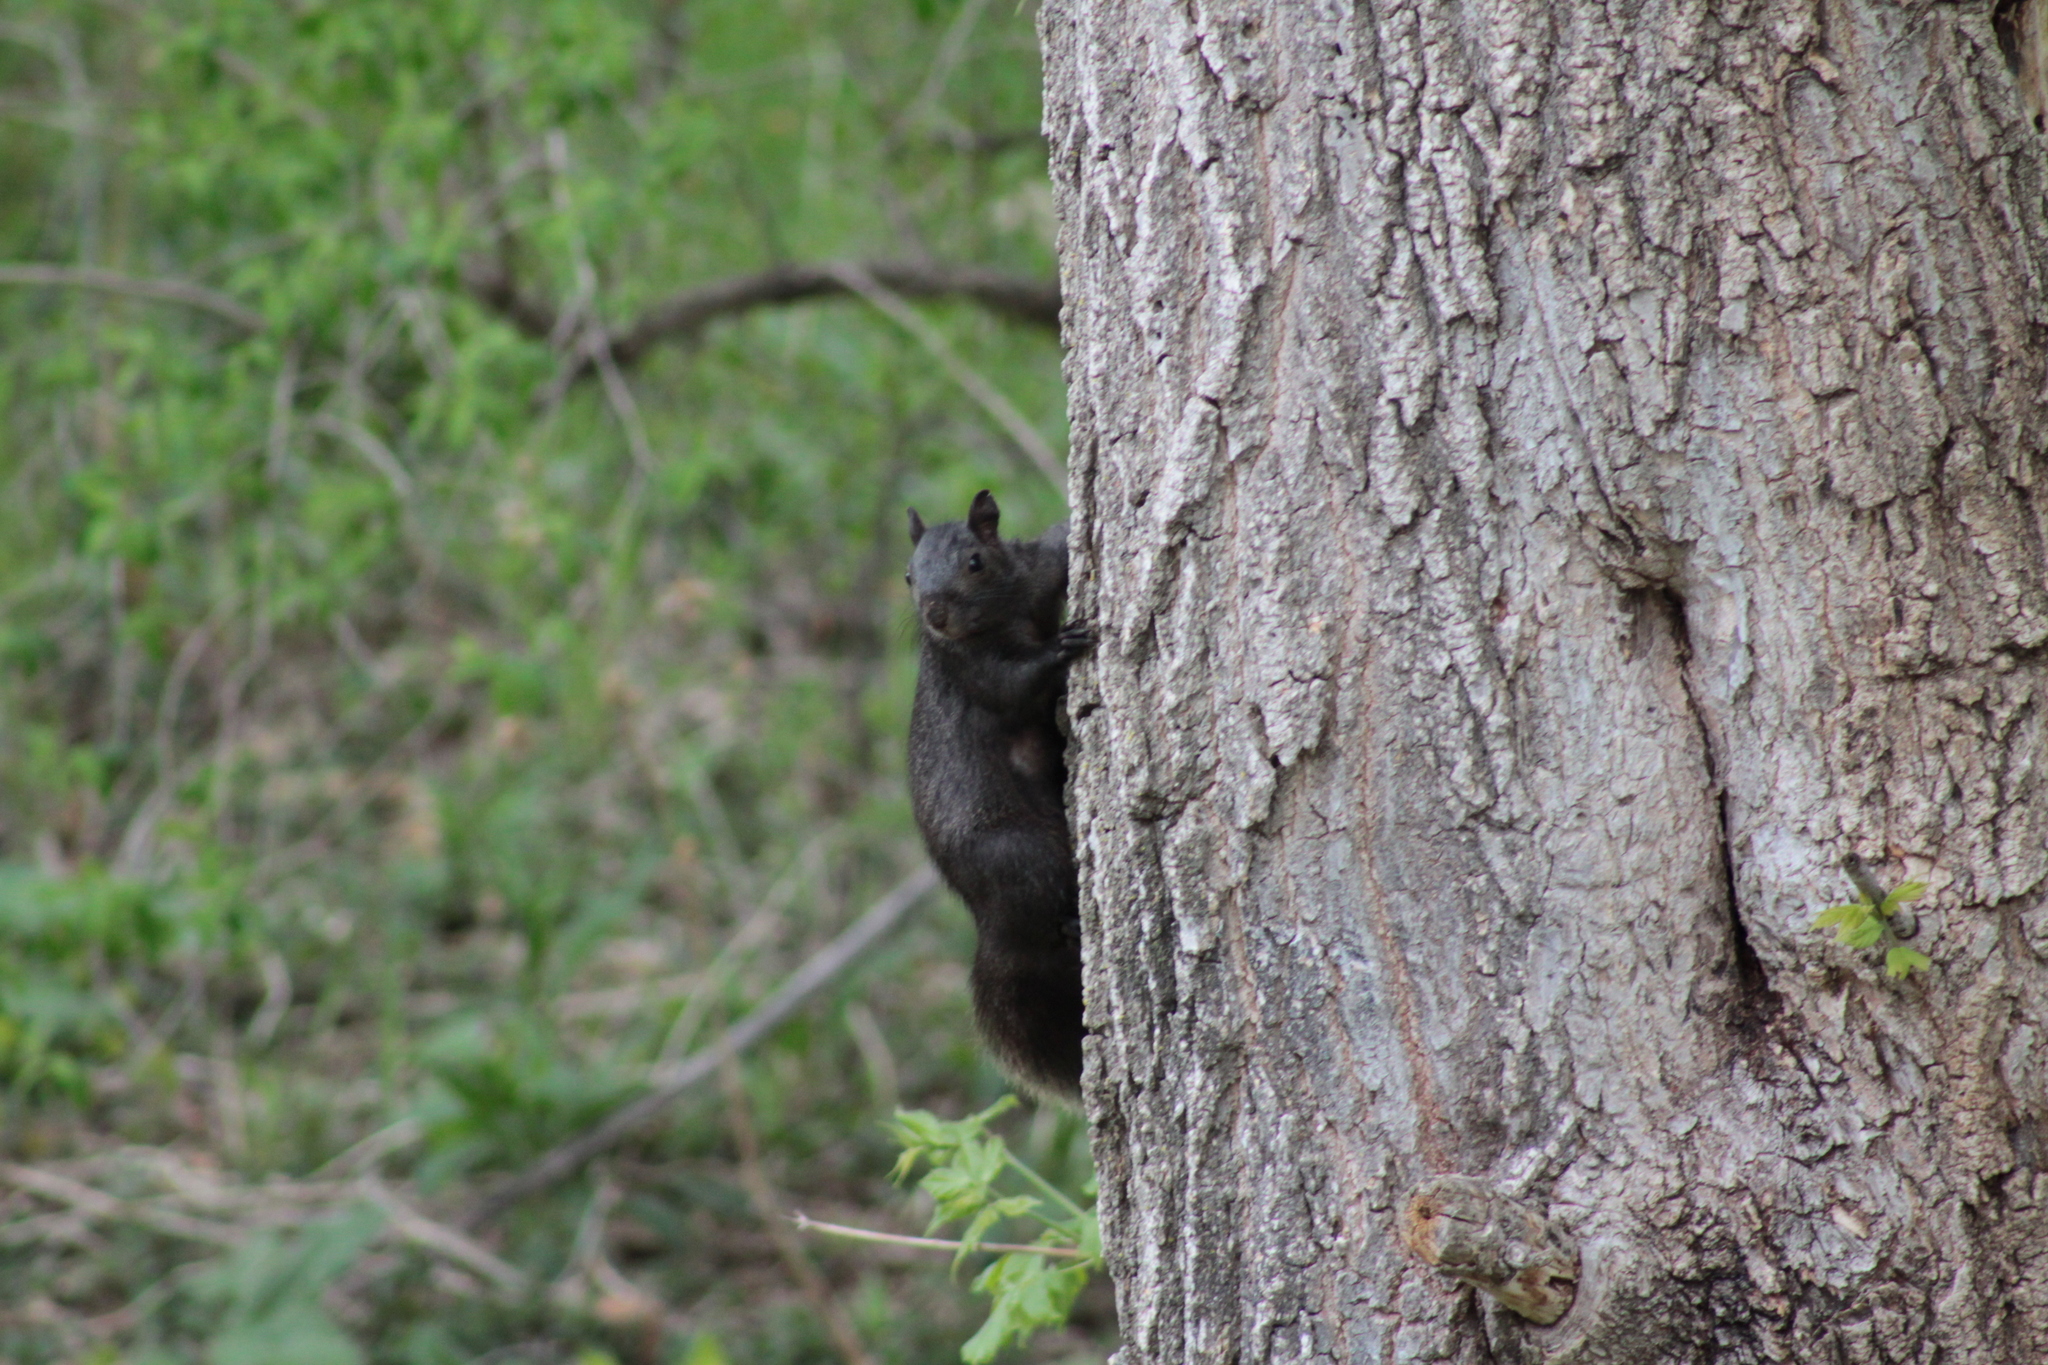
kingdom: Animalia
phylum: Chordata
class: Mammalia
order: Rodentia
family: Sciuridae
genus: Sciurus
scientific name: Sciurus carolinensis
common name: Eastern gray squirrel
